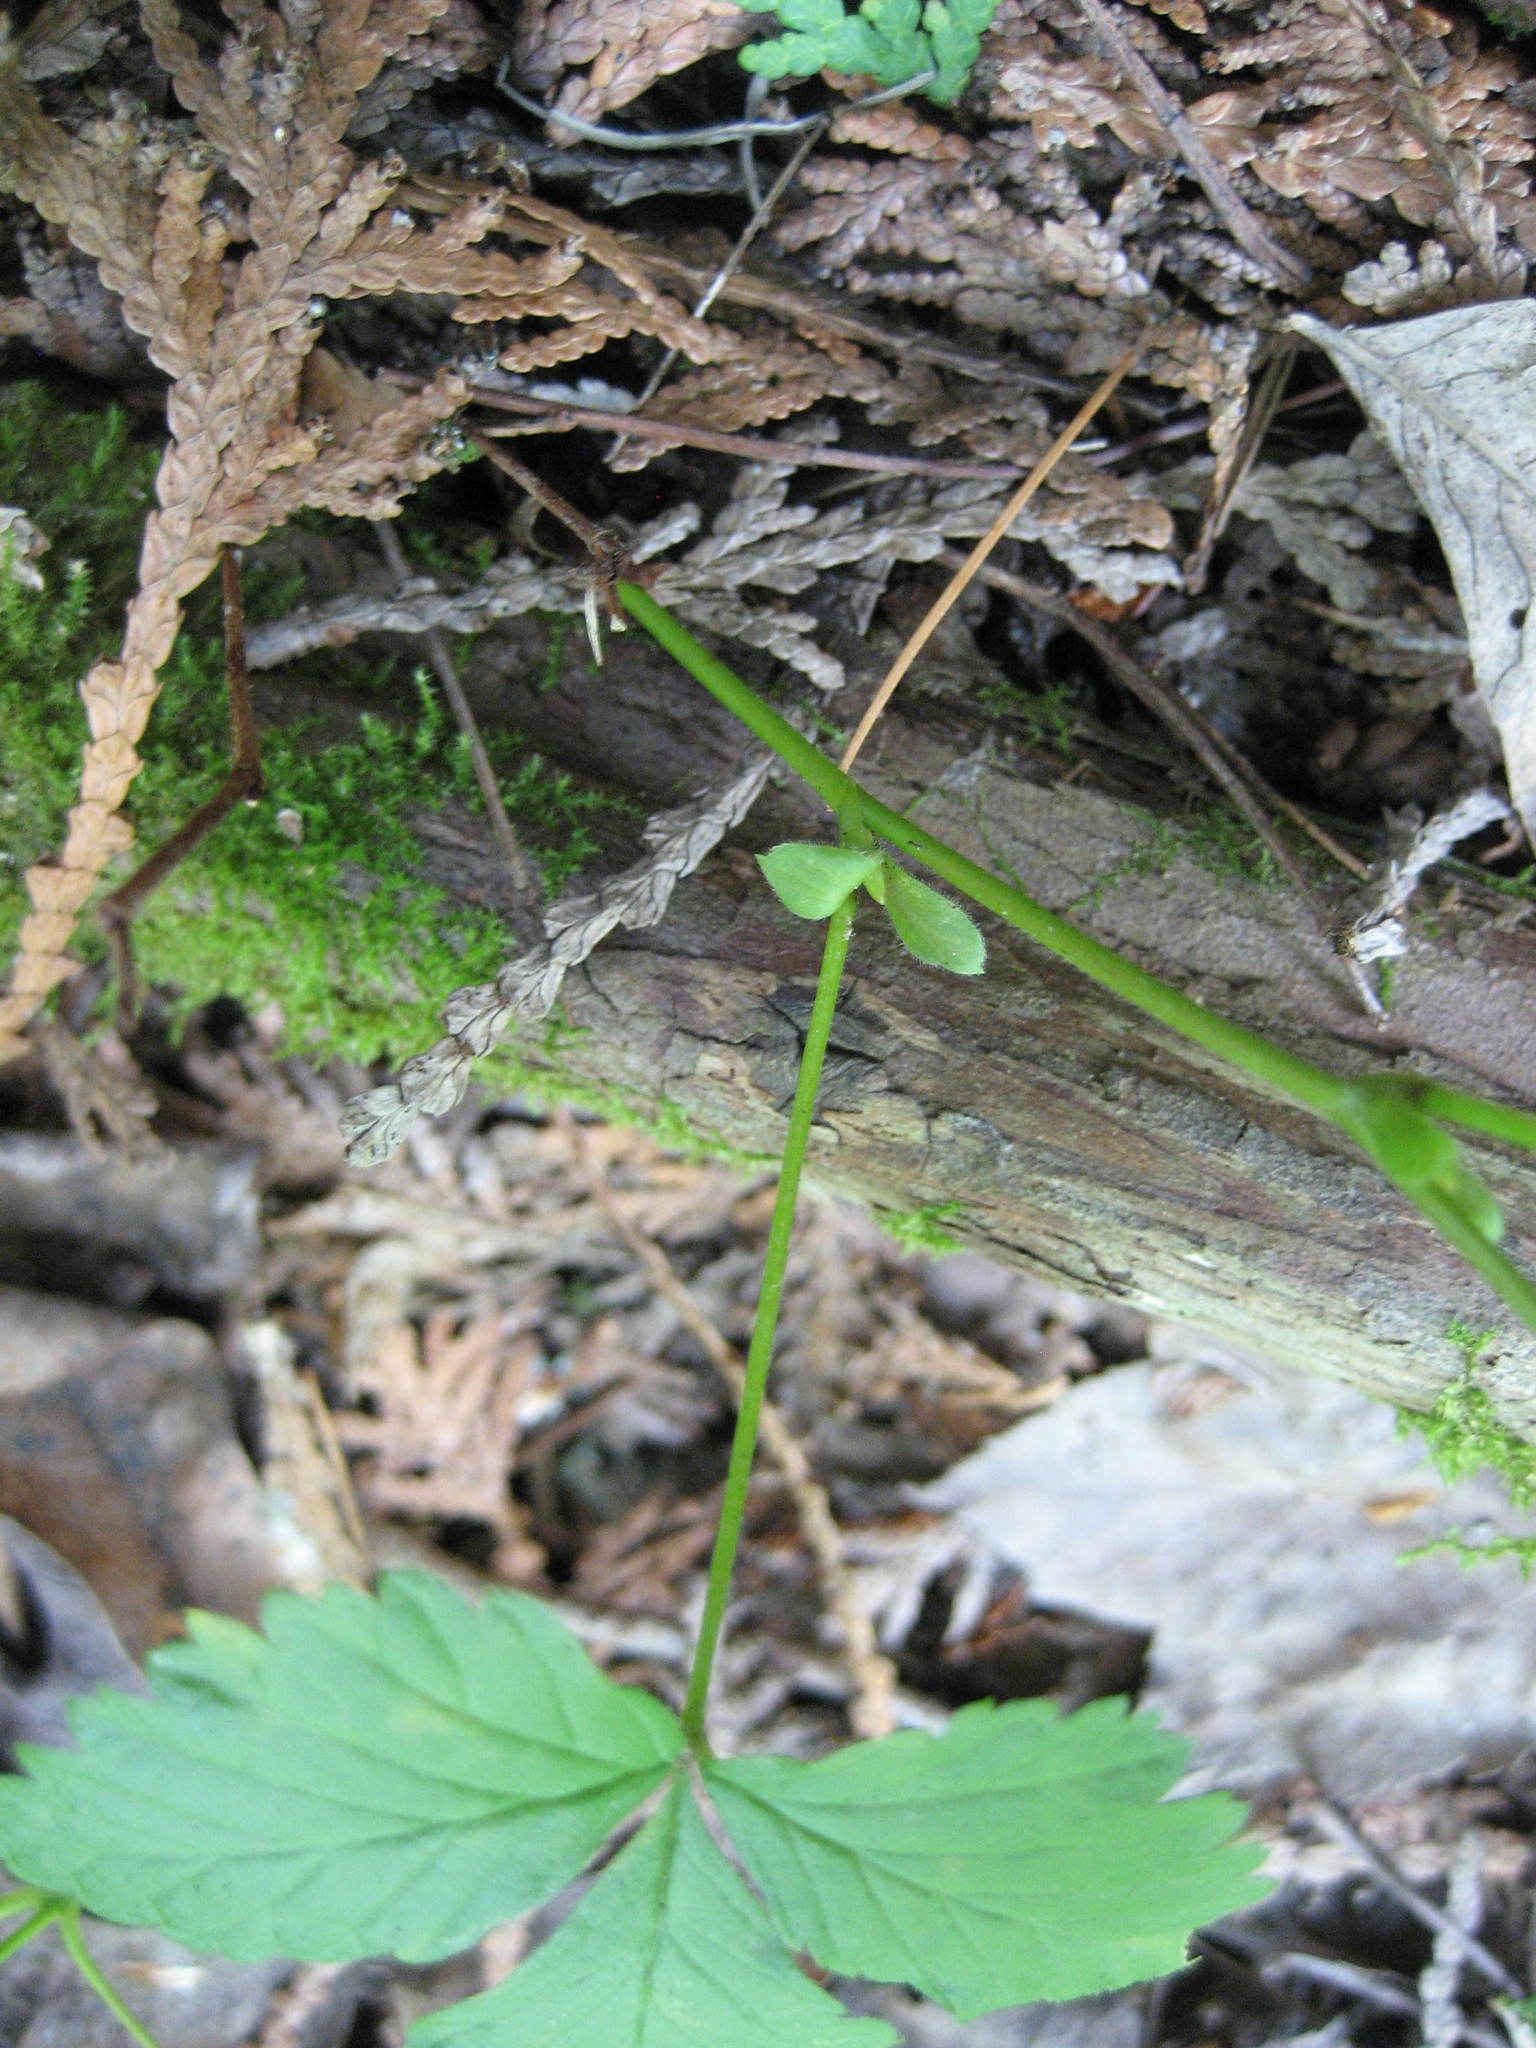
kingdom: Plantae
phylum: Tracheophyta
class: Magnoliopsida
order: Rosales
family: Rosaceae
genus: Rubus
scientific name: Rubus pubescens
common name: Dwarf raspberry
